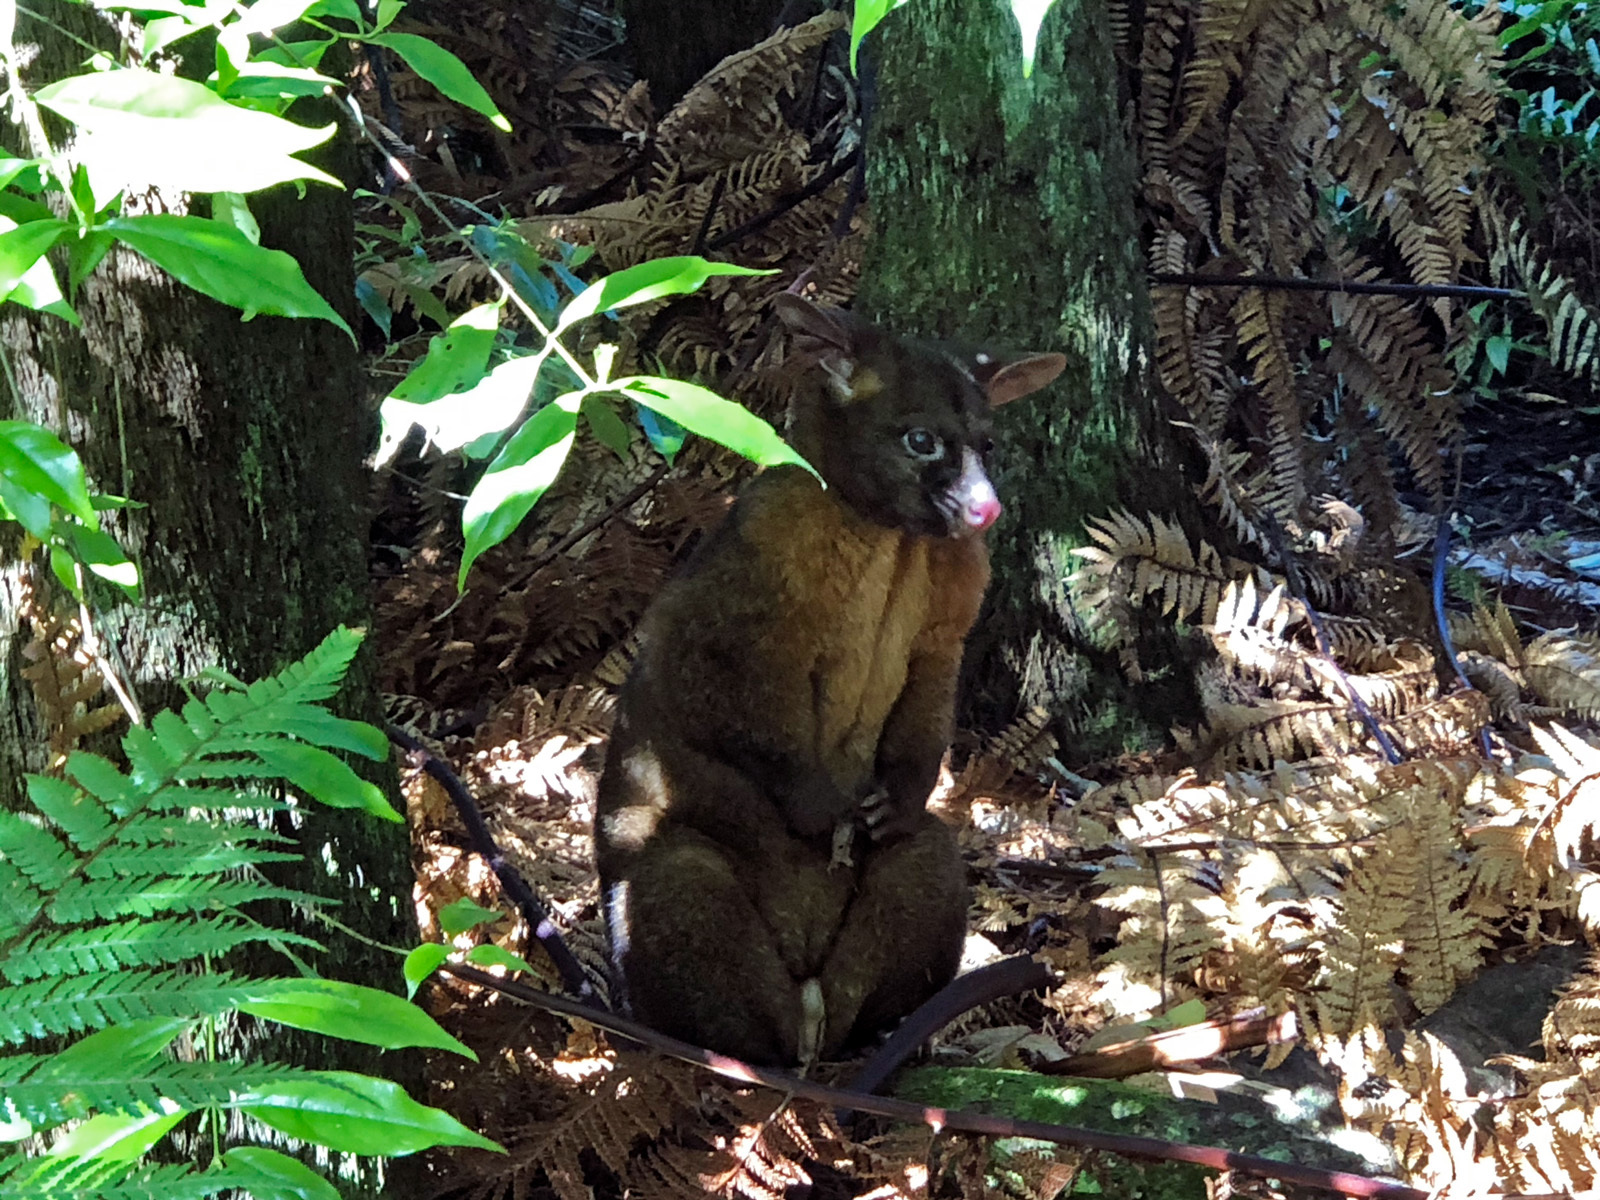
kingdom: Animalia
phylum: Chordata
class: Mammalia
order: Diprotodontia
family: Phalangeridae
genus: Trichosurus
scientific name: Trichosurus vulpecula
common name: Common brushtail
